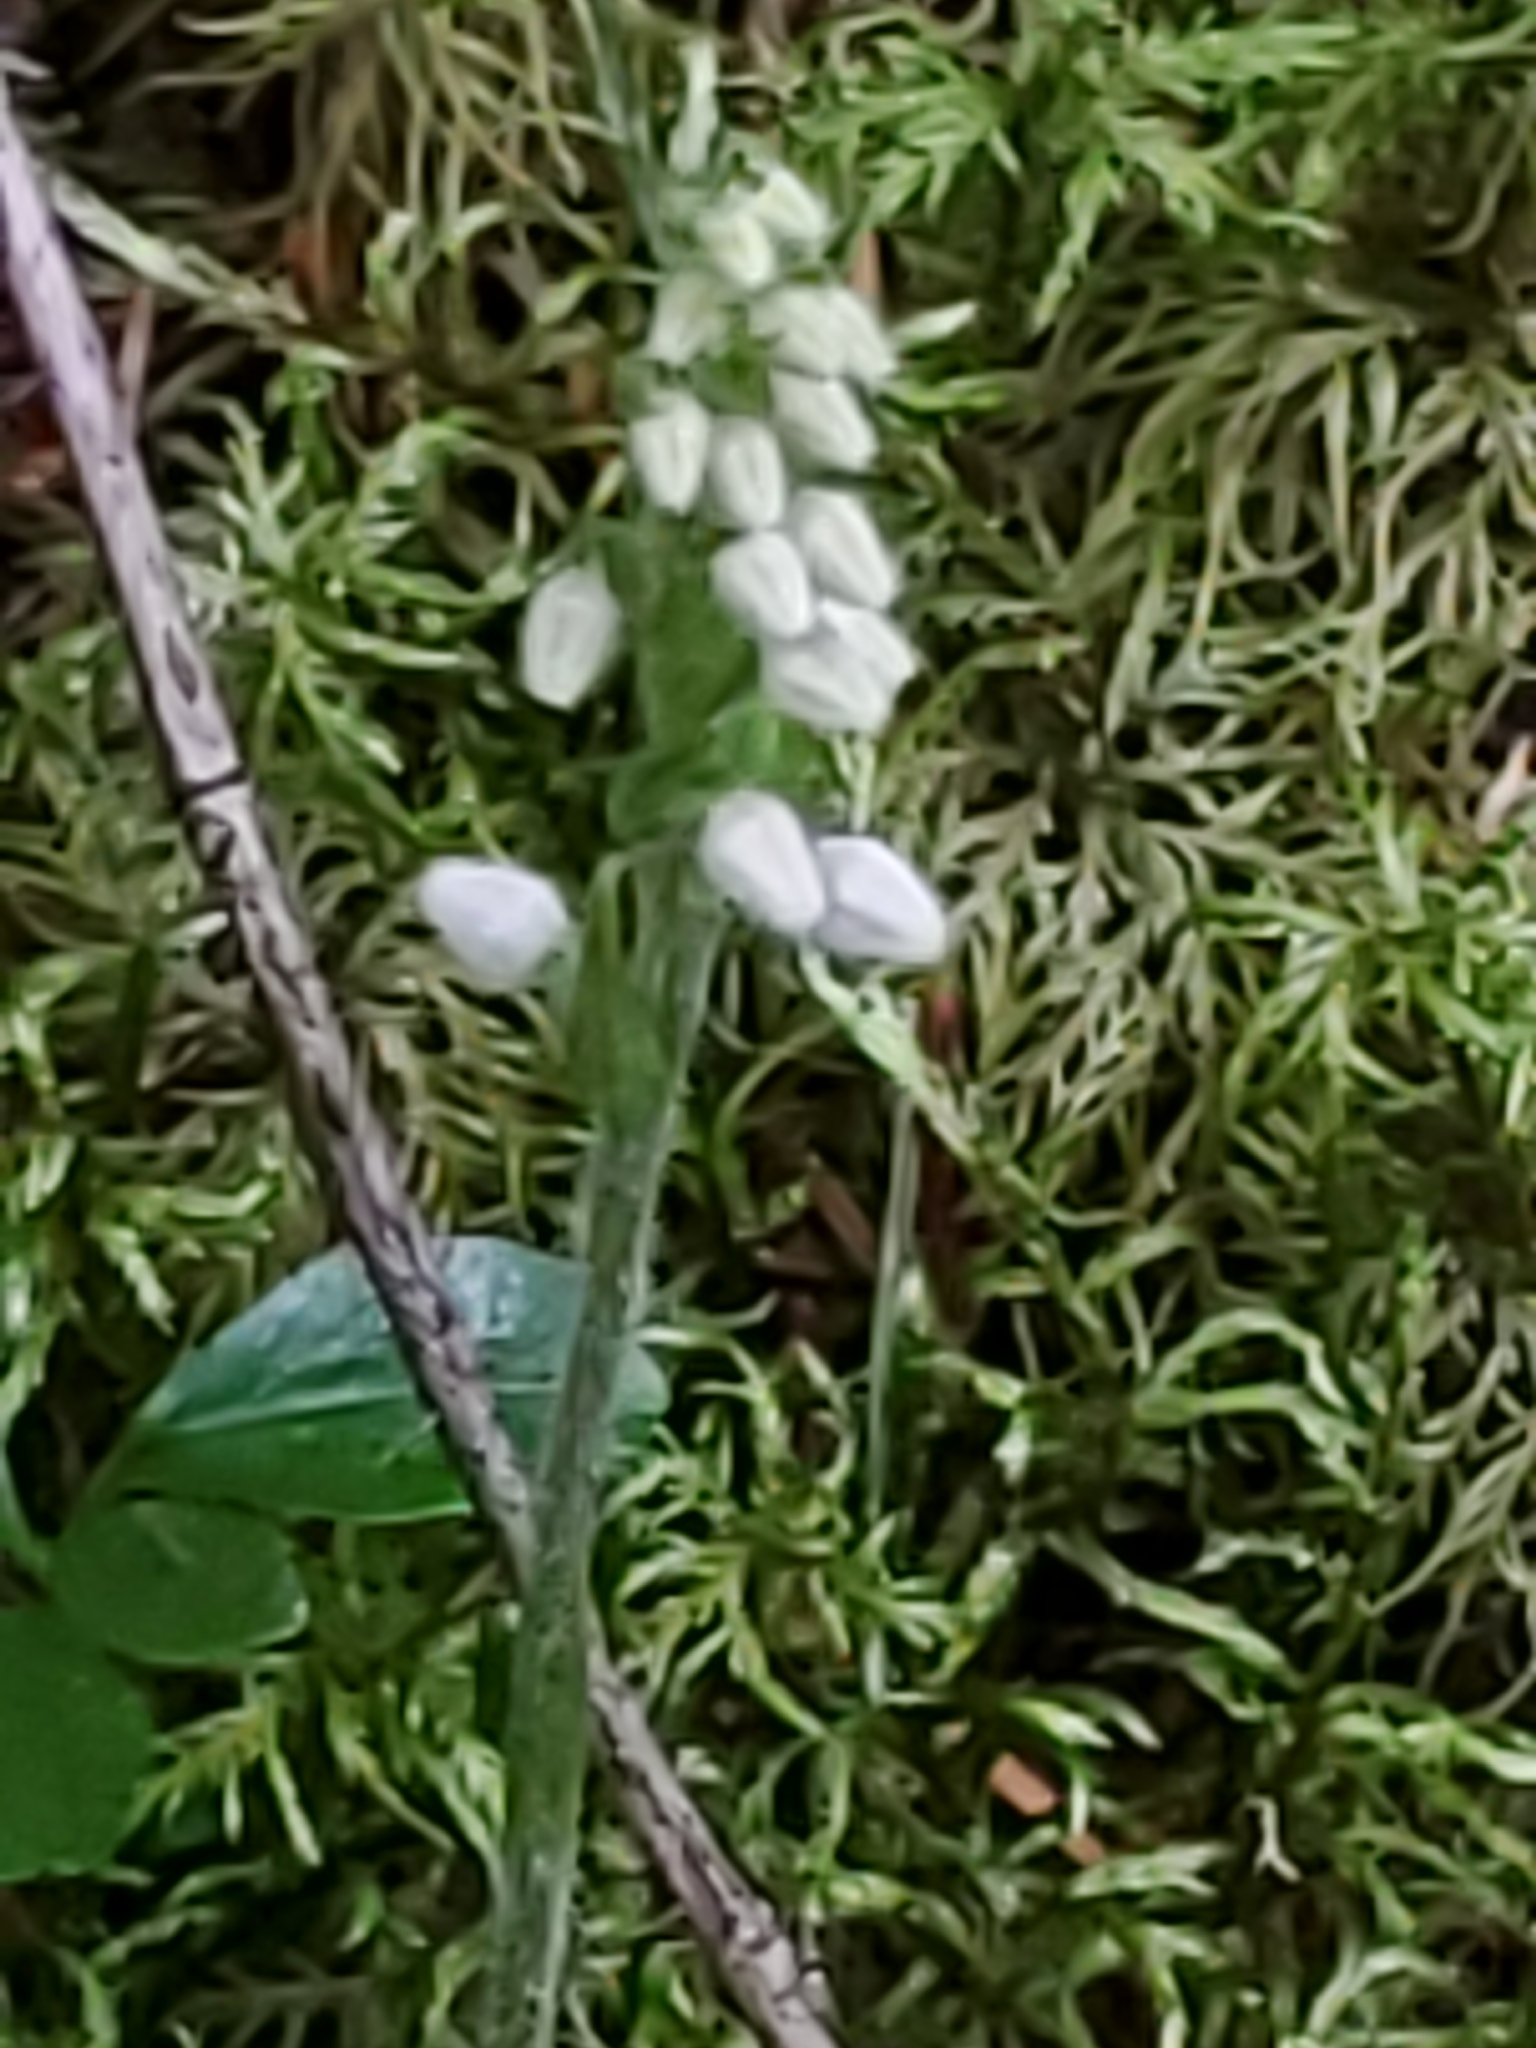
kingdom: Plantae
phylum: Tracheophyta
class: Liliopsida
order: Asparagales
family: Orchidaceae
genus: Goodyera
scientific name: Goodyera repens
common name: Creeping lady's-tresses
